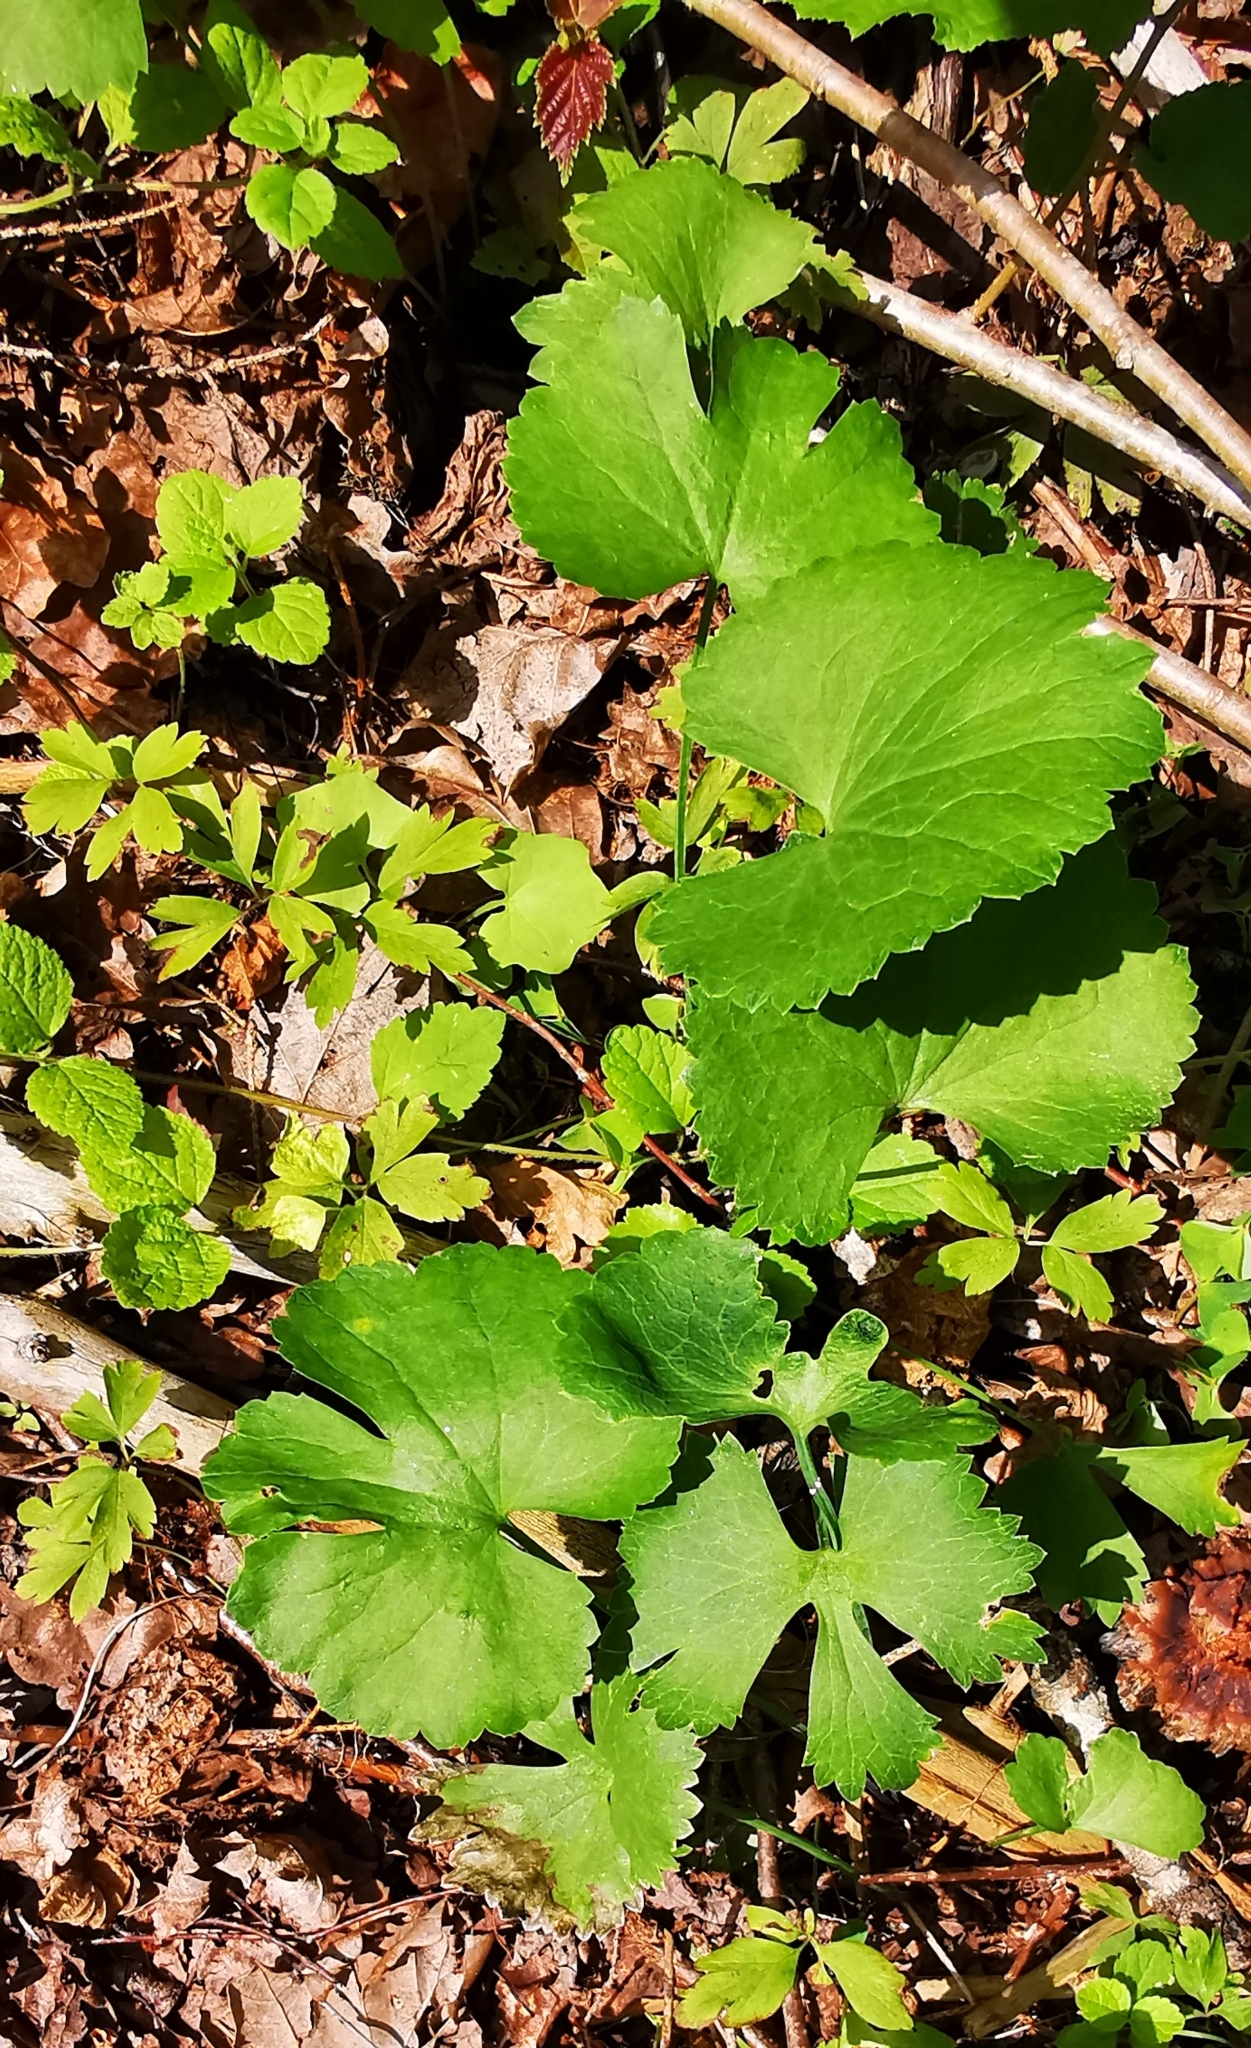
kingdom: Plantae
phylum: Tracheophyta
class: Magnoliopsida
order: Ranunculales
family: Ranunculaceae
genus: Ranunculus
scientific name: Ranunculus cassubicus
